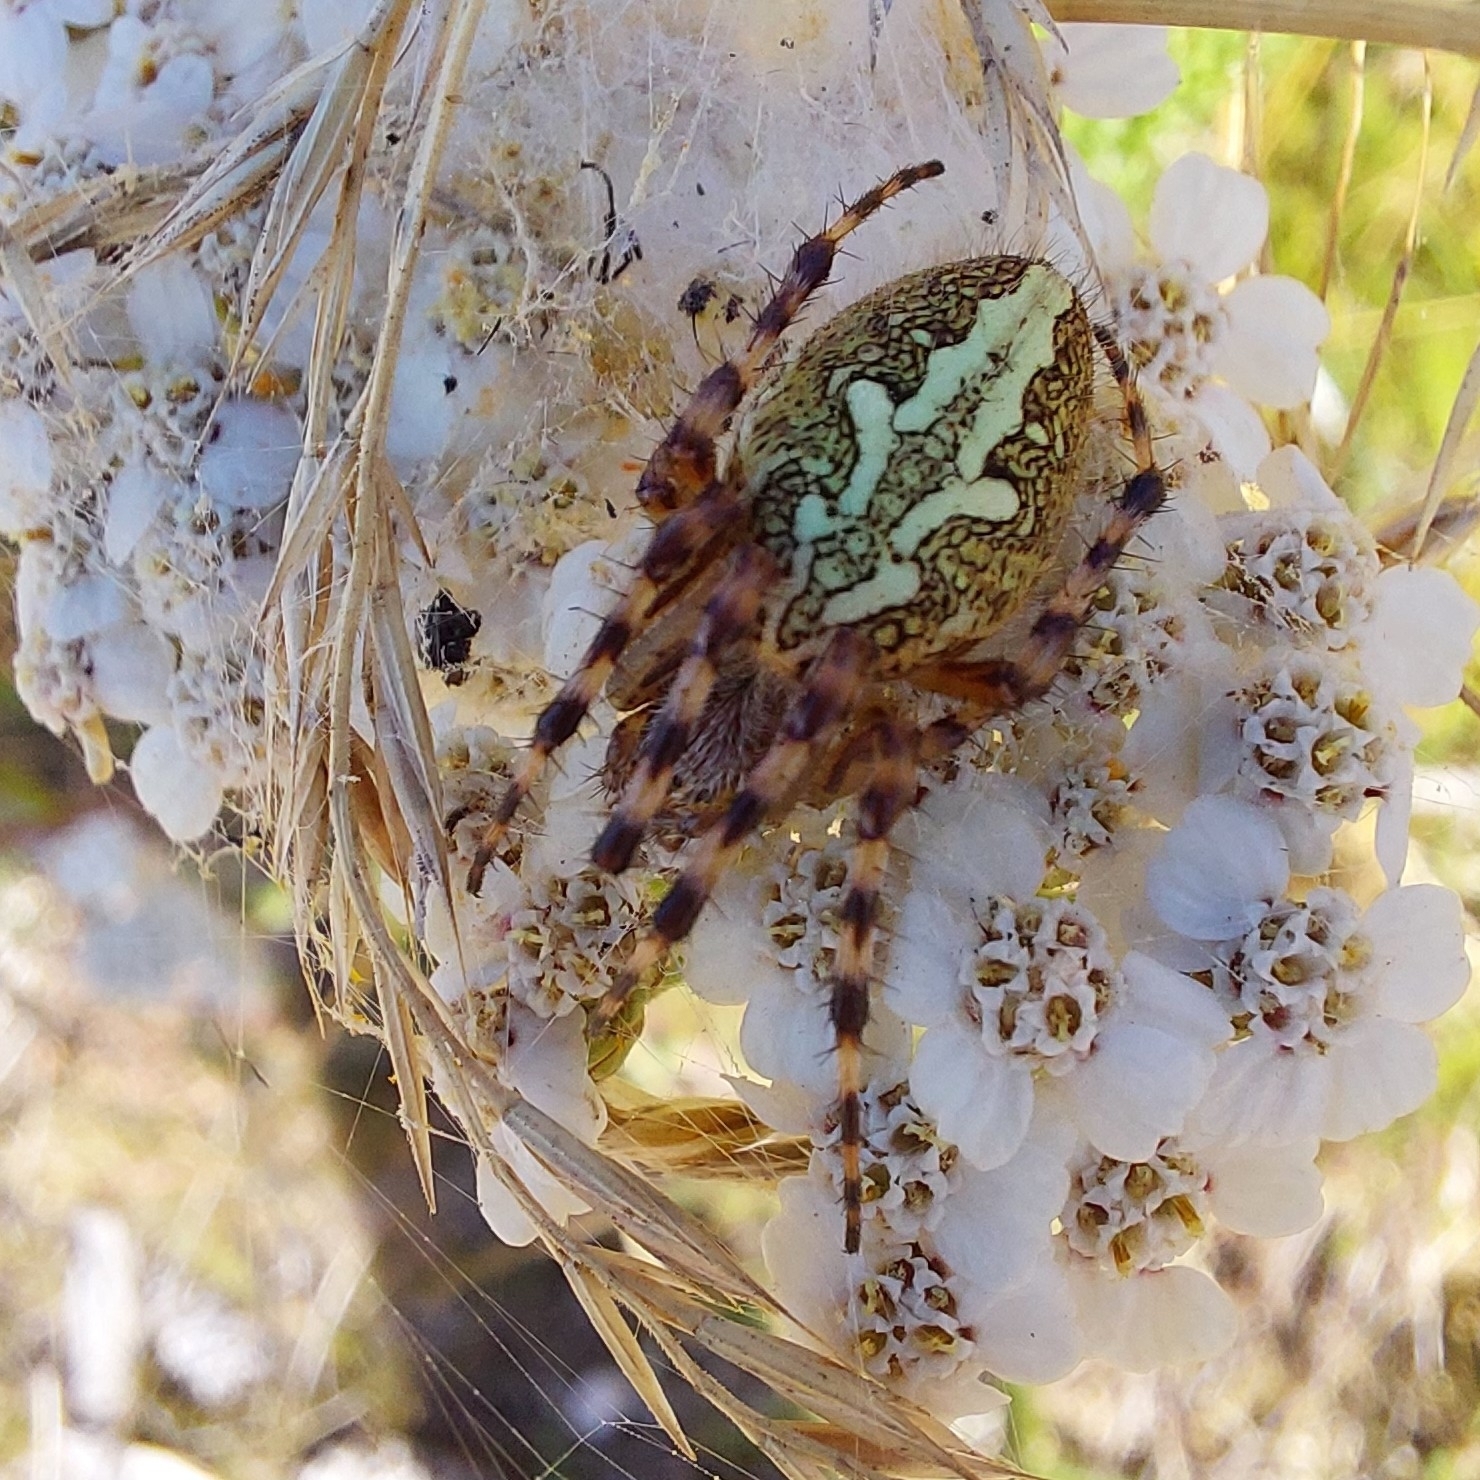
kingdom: Animalia
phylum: Arthropoda
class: Arachnida
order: Araneae
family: Araneidae
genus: Aculepeira
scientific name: Aculepeira ceropegia
